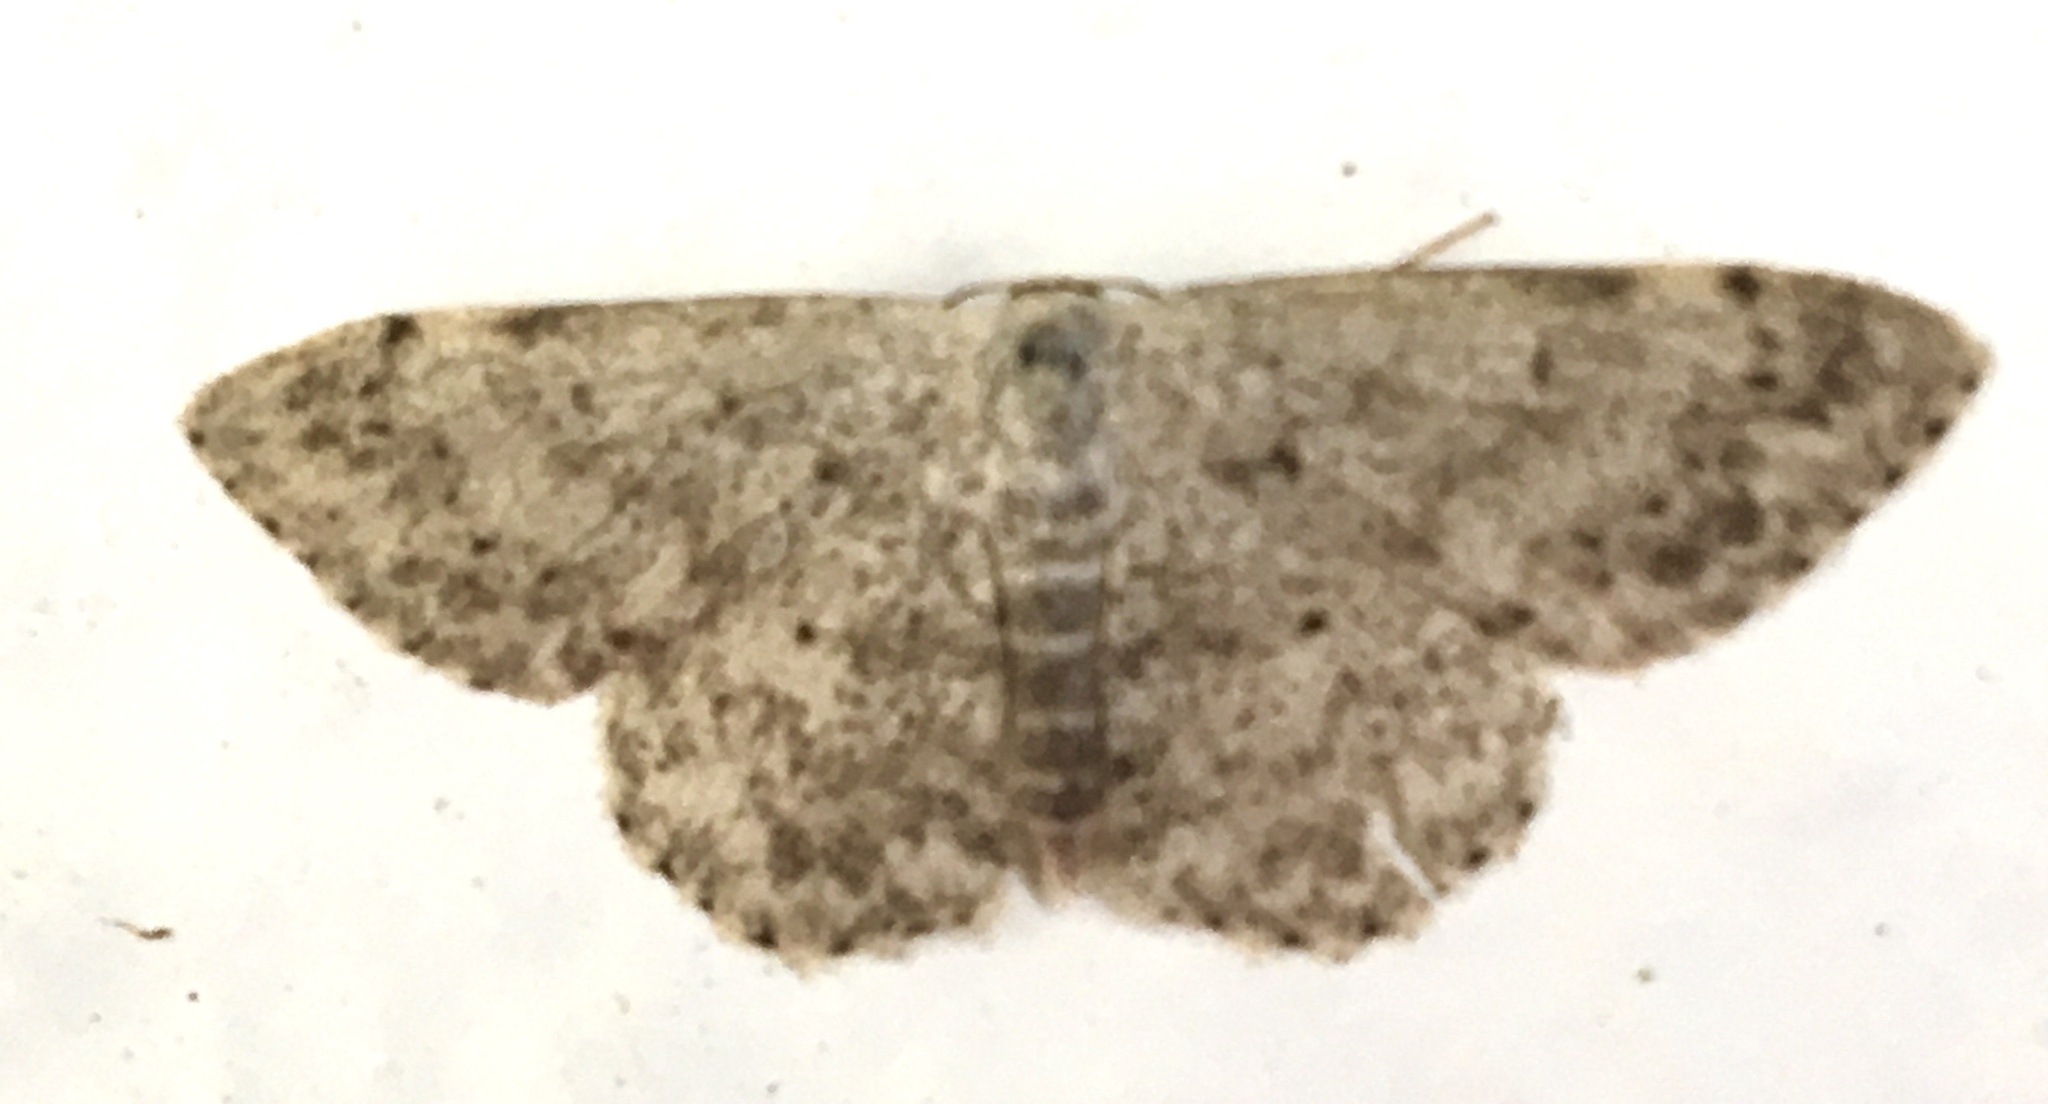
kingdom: Animalia
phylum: Arthropoda
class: Insecta
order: Lepidoptera
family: Geometridae
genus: Scopula
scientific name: Scopula marginepunctata
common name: Mullein wave
